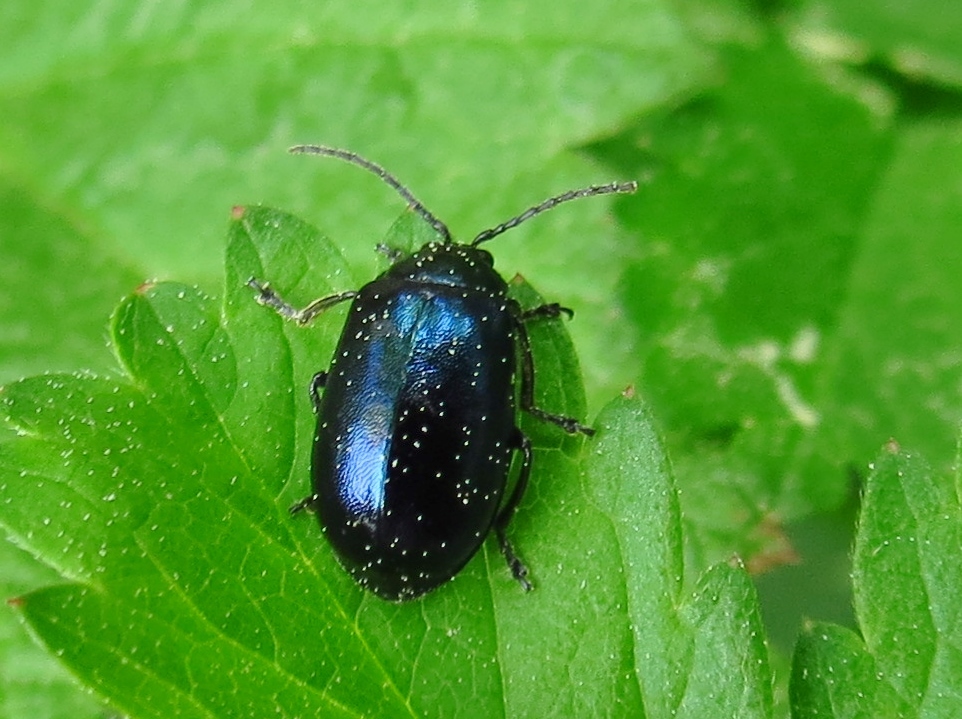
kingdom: Animalia
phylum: Arthropoda
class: Insecta
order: Coleoptera
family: Chrysomelidae
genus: Agelastica
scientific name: Agelastica alni
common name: Alder leaf beetle
